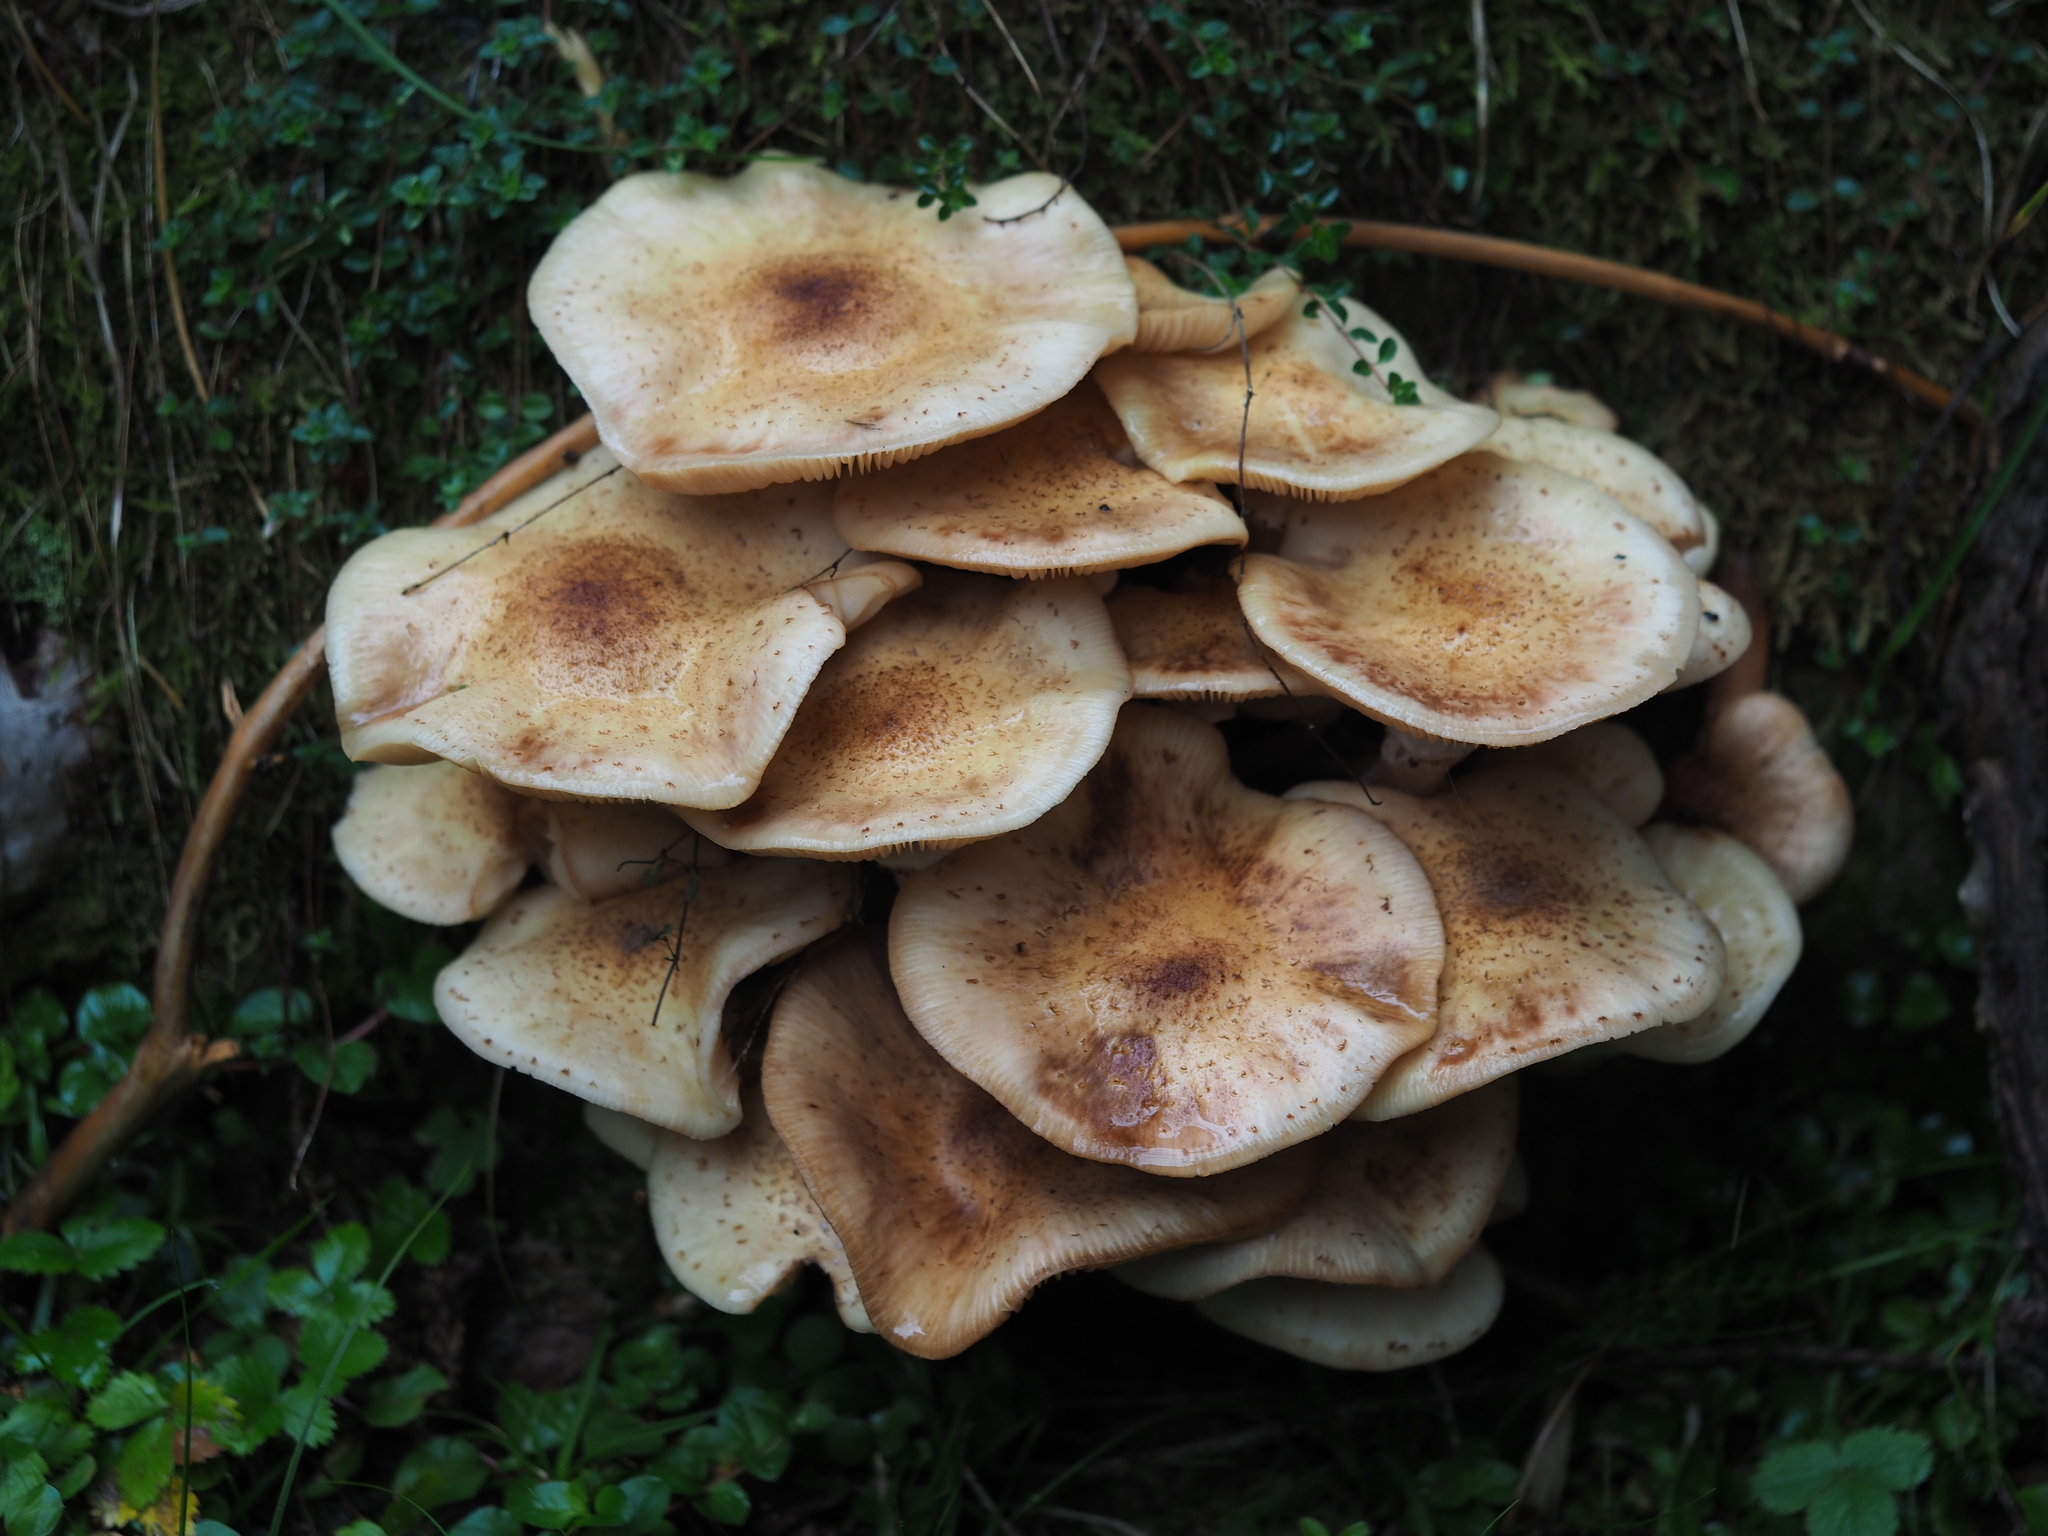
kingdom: Fungi
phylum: Basidiomycota
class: Agaricomycetes
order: Agaricales
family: Physalacriaceae
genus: Armillaria
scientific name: Armillaria mellea
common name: Honey fungus
